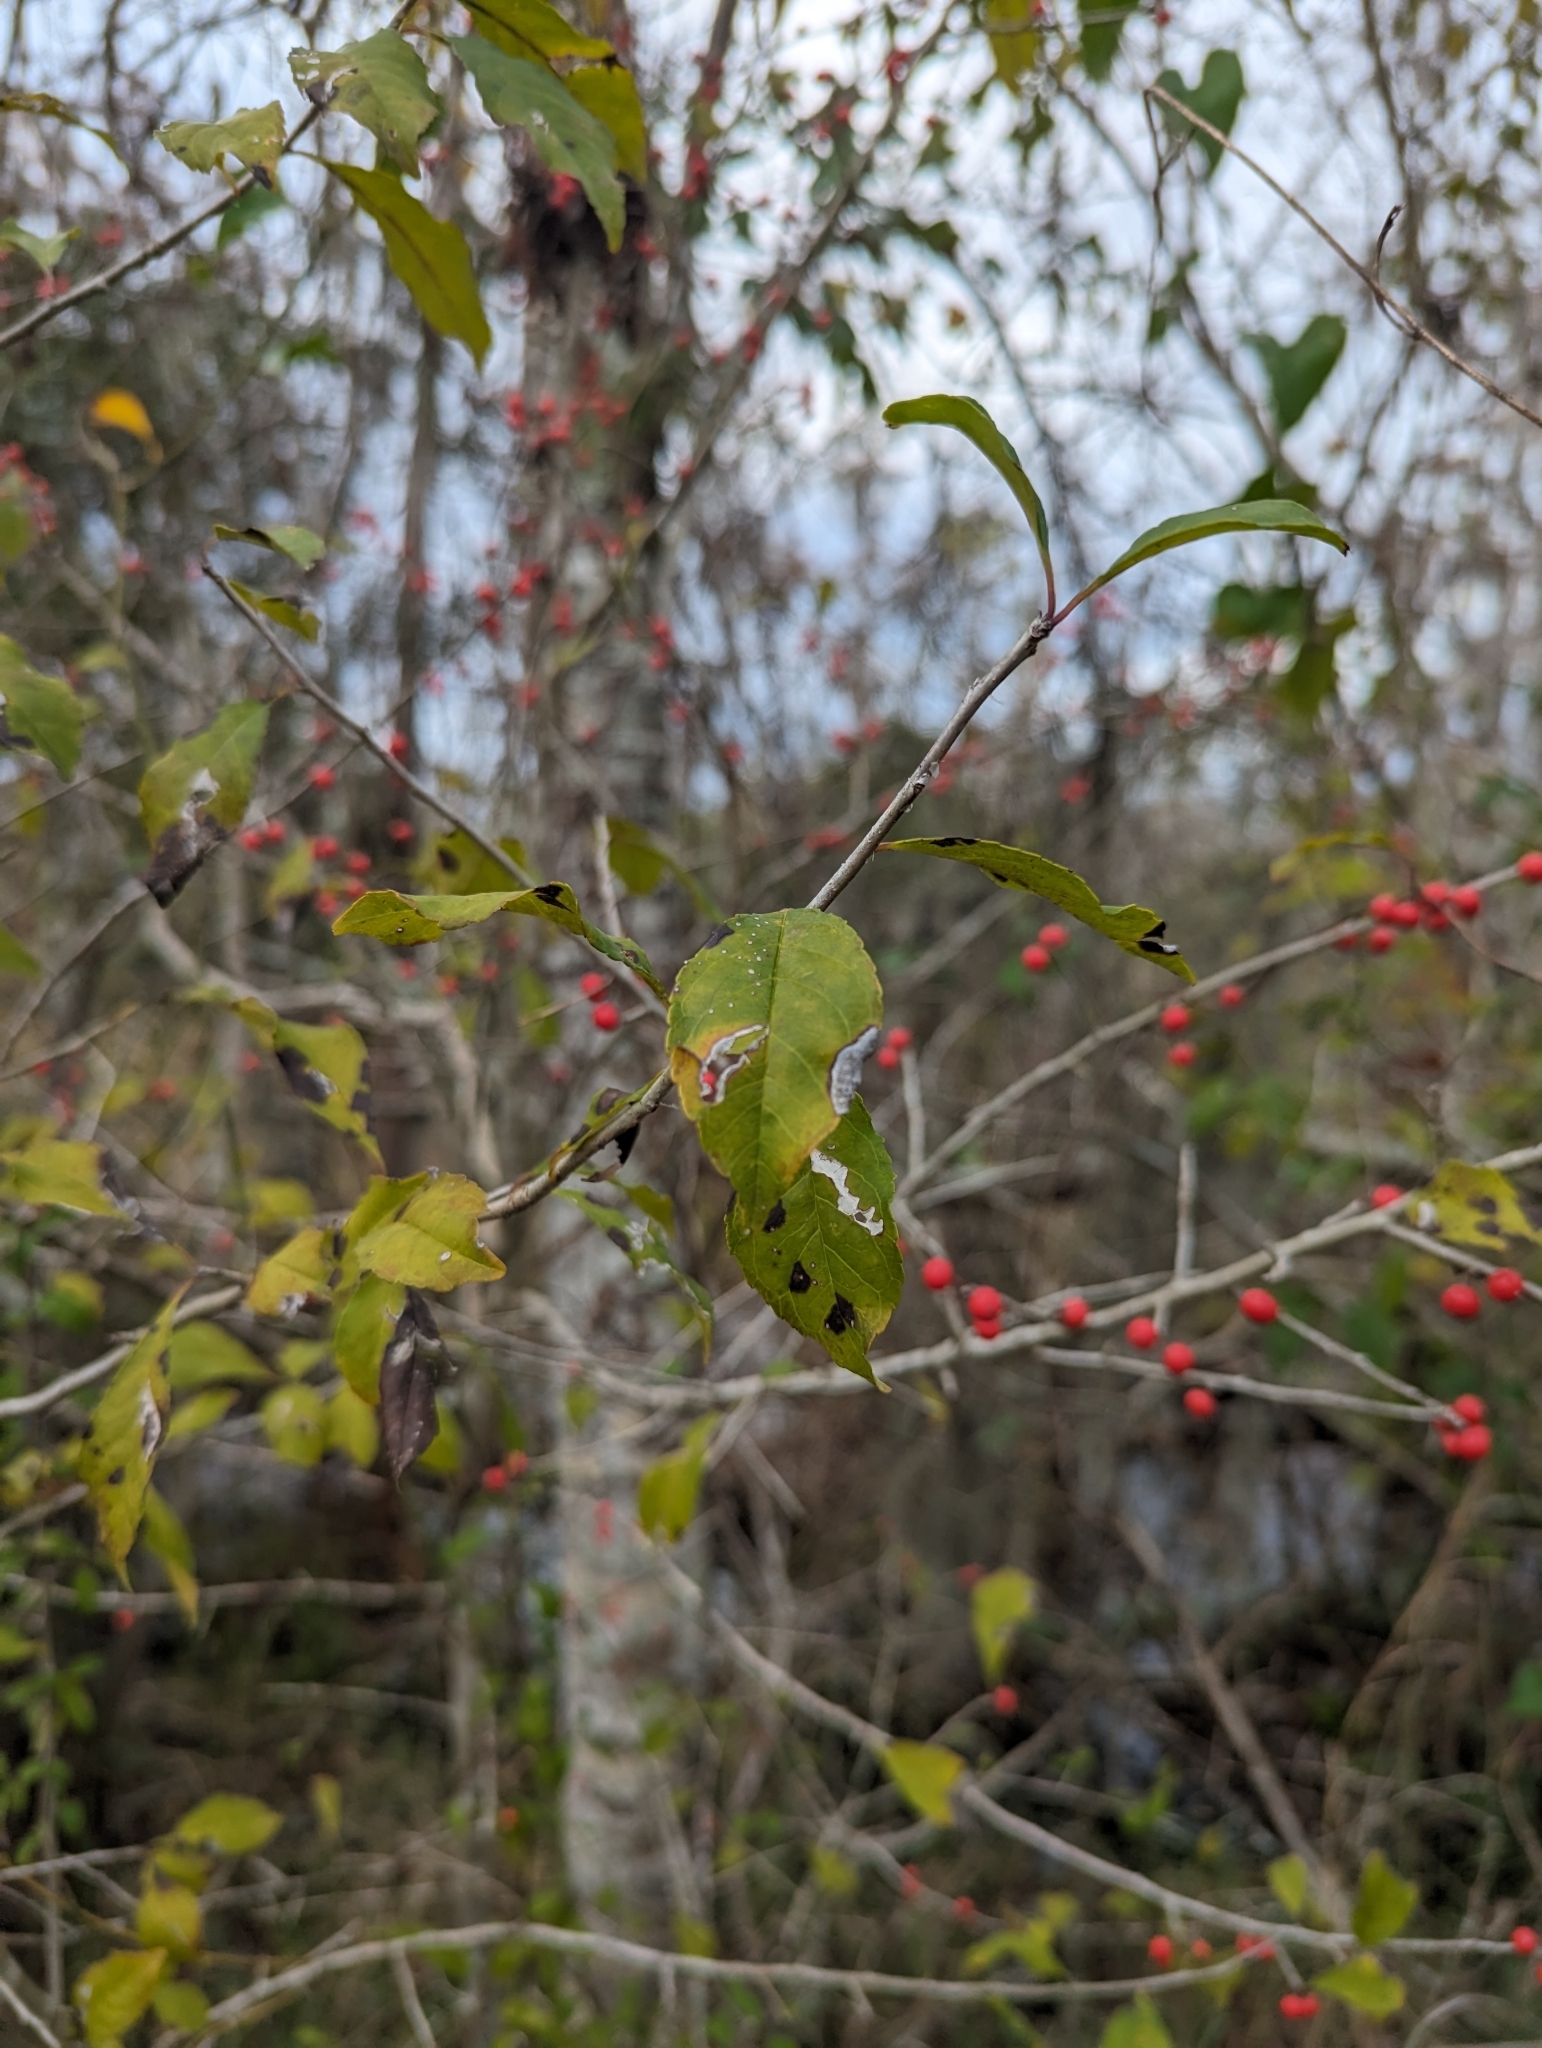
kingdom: Plantae
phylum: Tracheophyta
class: Magnoliopsida
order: Aquifoliales
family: Aquifoliaceae
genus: Ilex
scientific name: Ilex decidua
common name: Possum-haw
